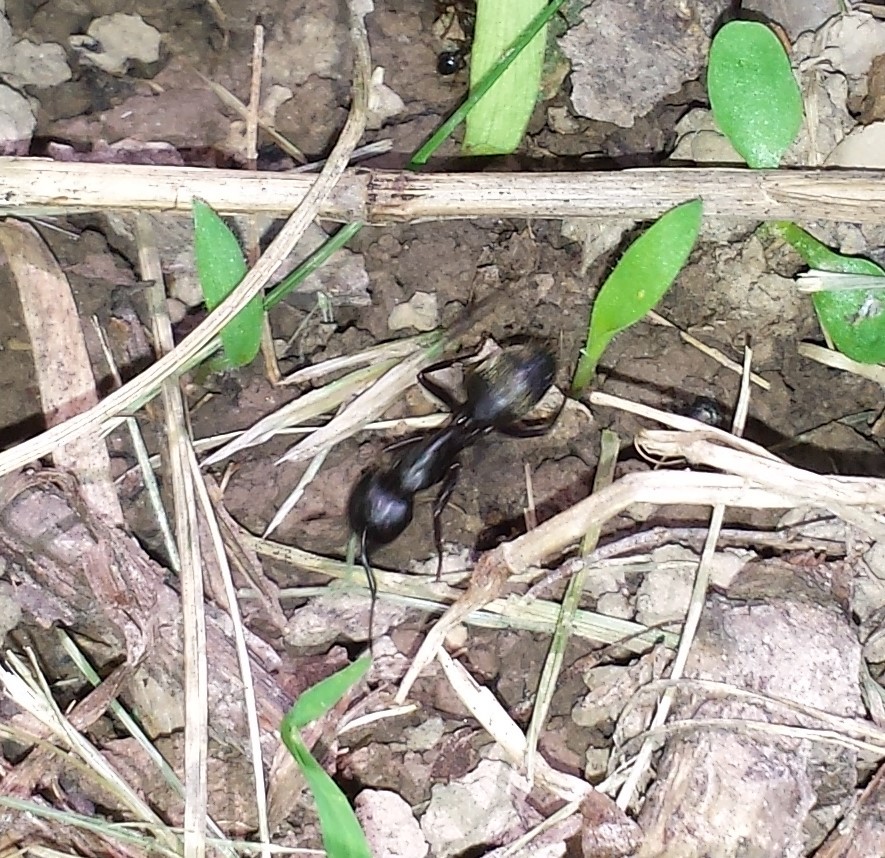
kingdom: Animalia
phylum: Arthropoda
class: Insecta
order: Hymenoptera
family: Formicidae
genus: Camponotus
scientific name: Camponotus pennsylvanicus
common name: Black carpenter ant
